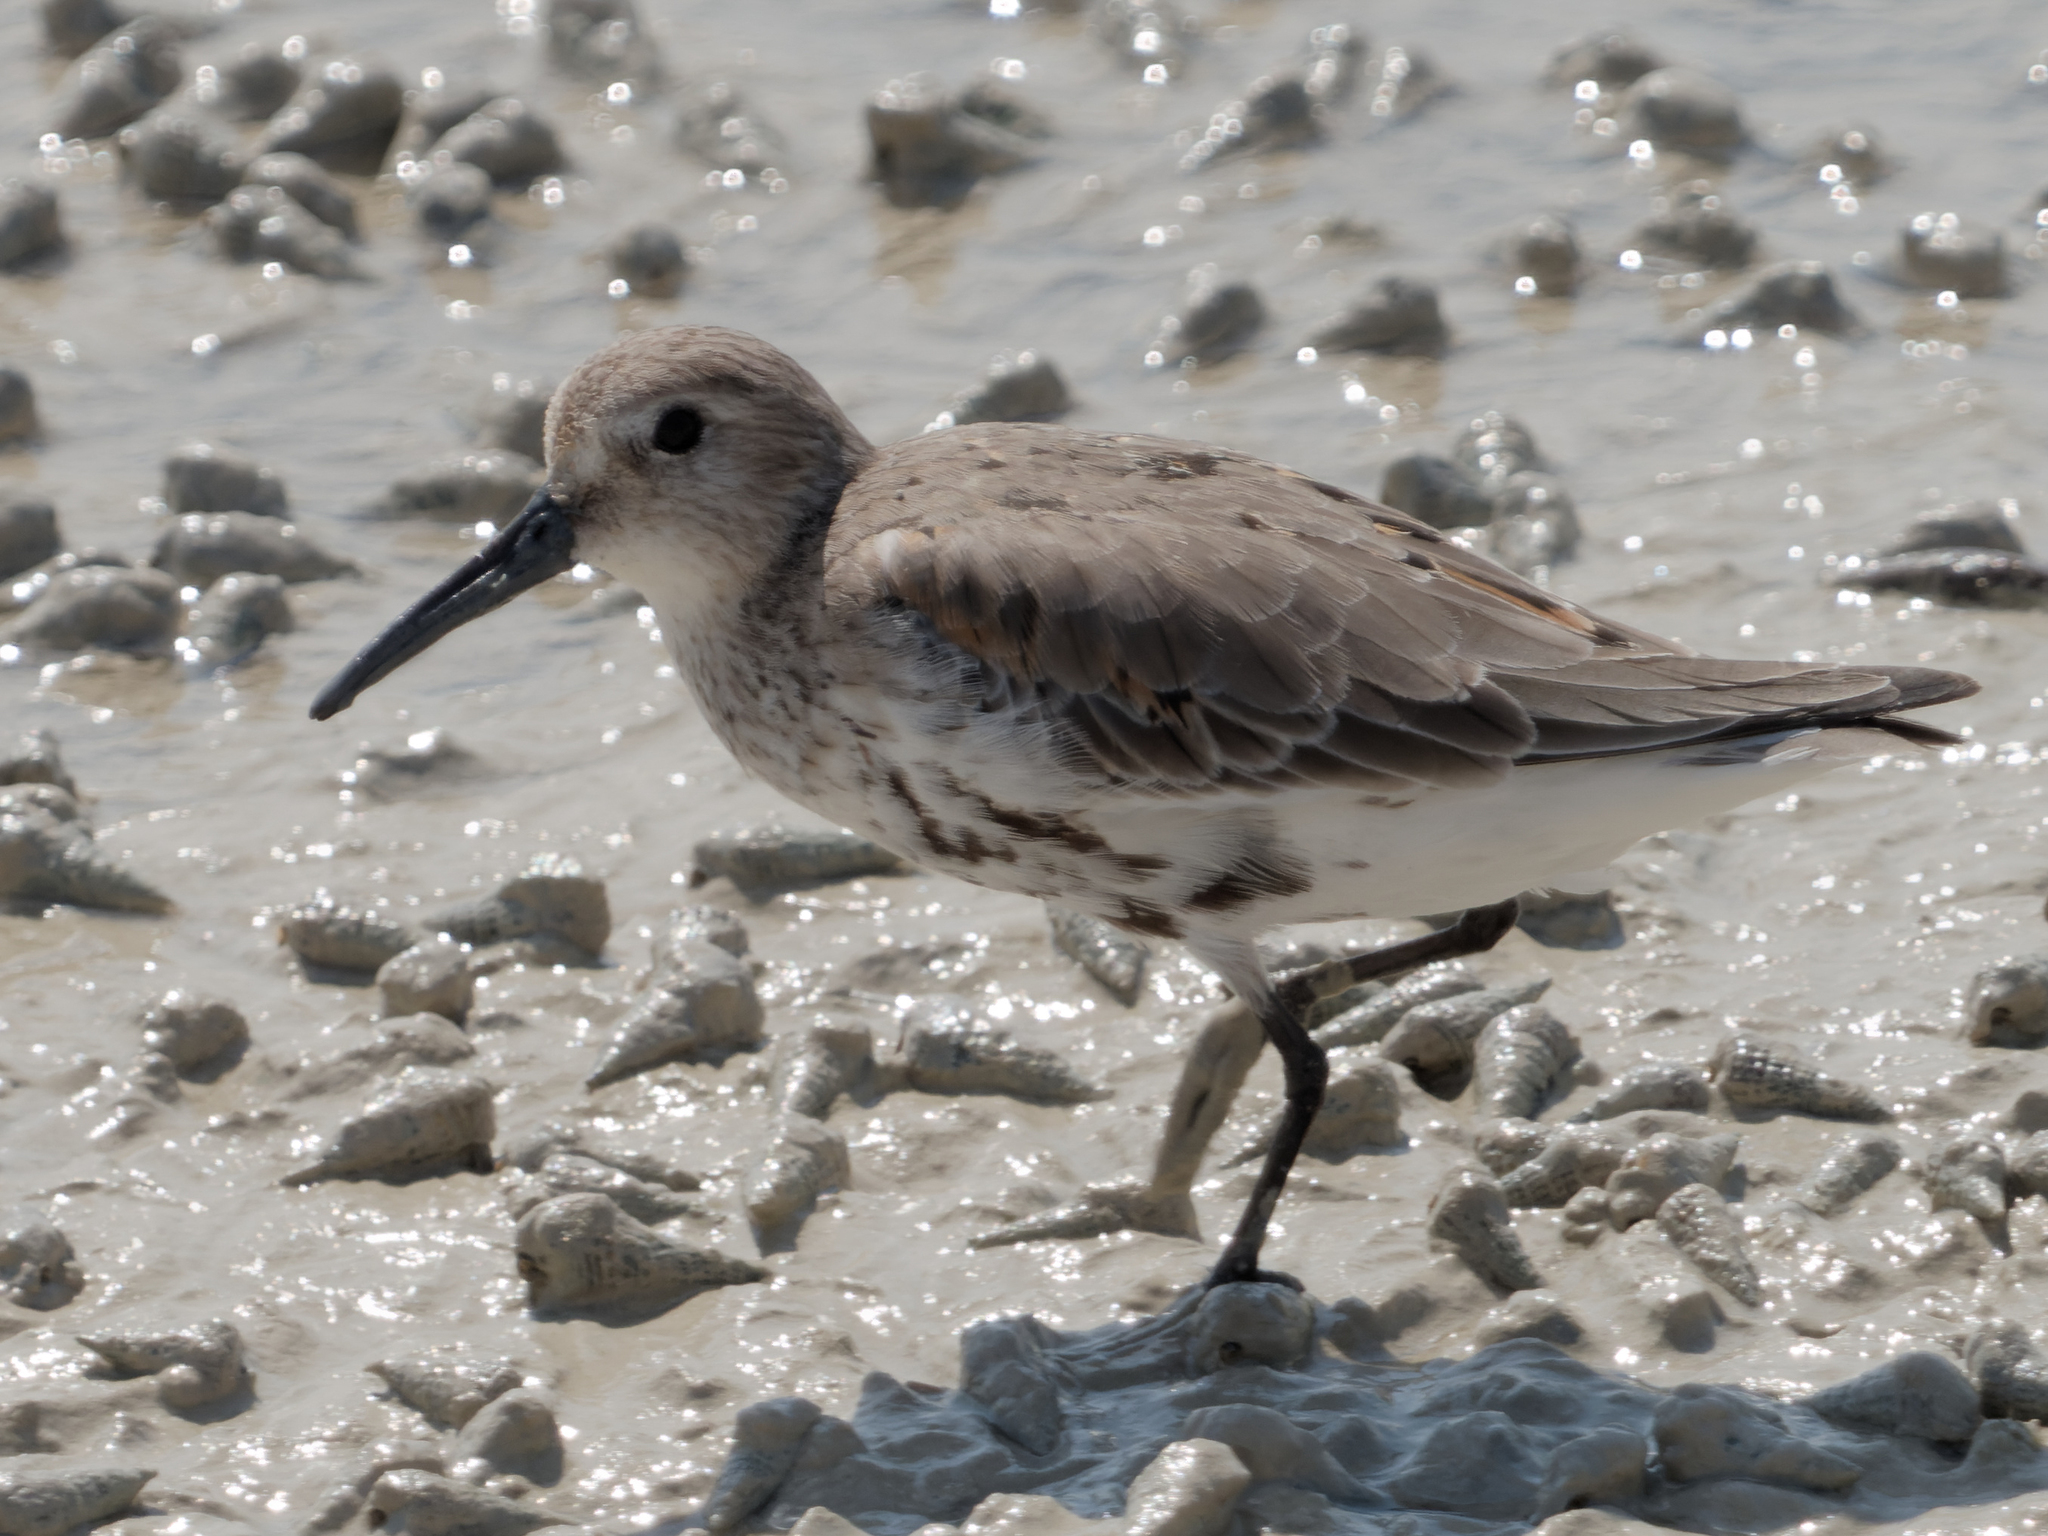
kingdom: Animalia
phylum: Chordata
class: Aves
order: Charadriiformes
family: Scolopacidae
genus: Calidris
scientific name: Calidris alpina
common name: Dunlin
